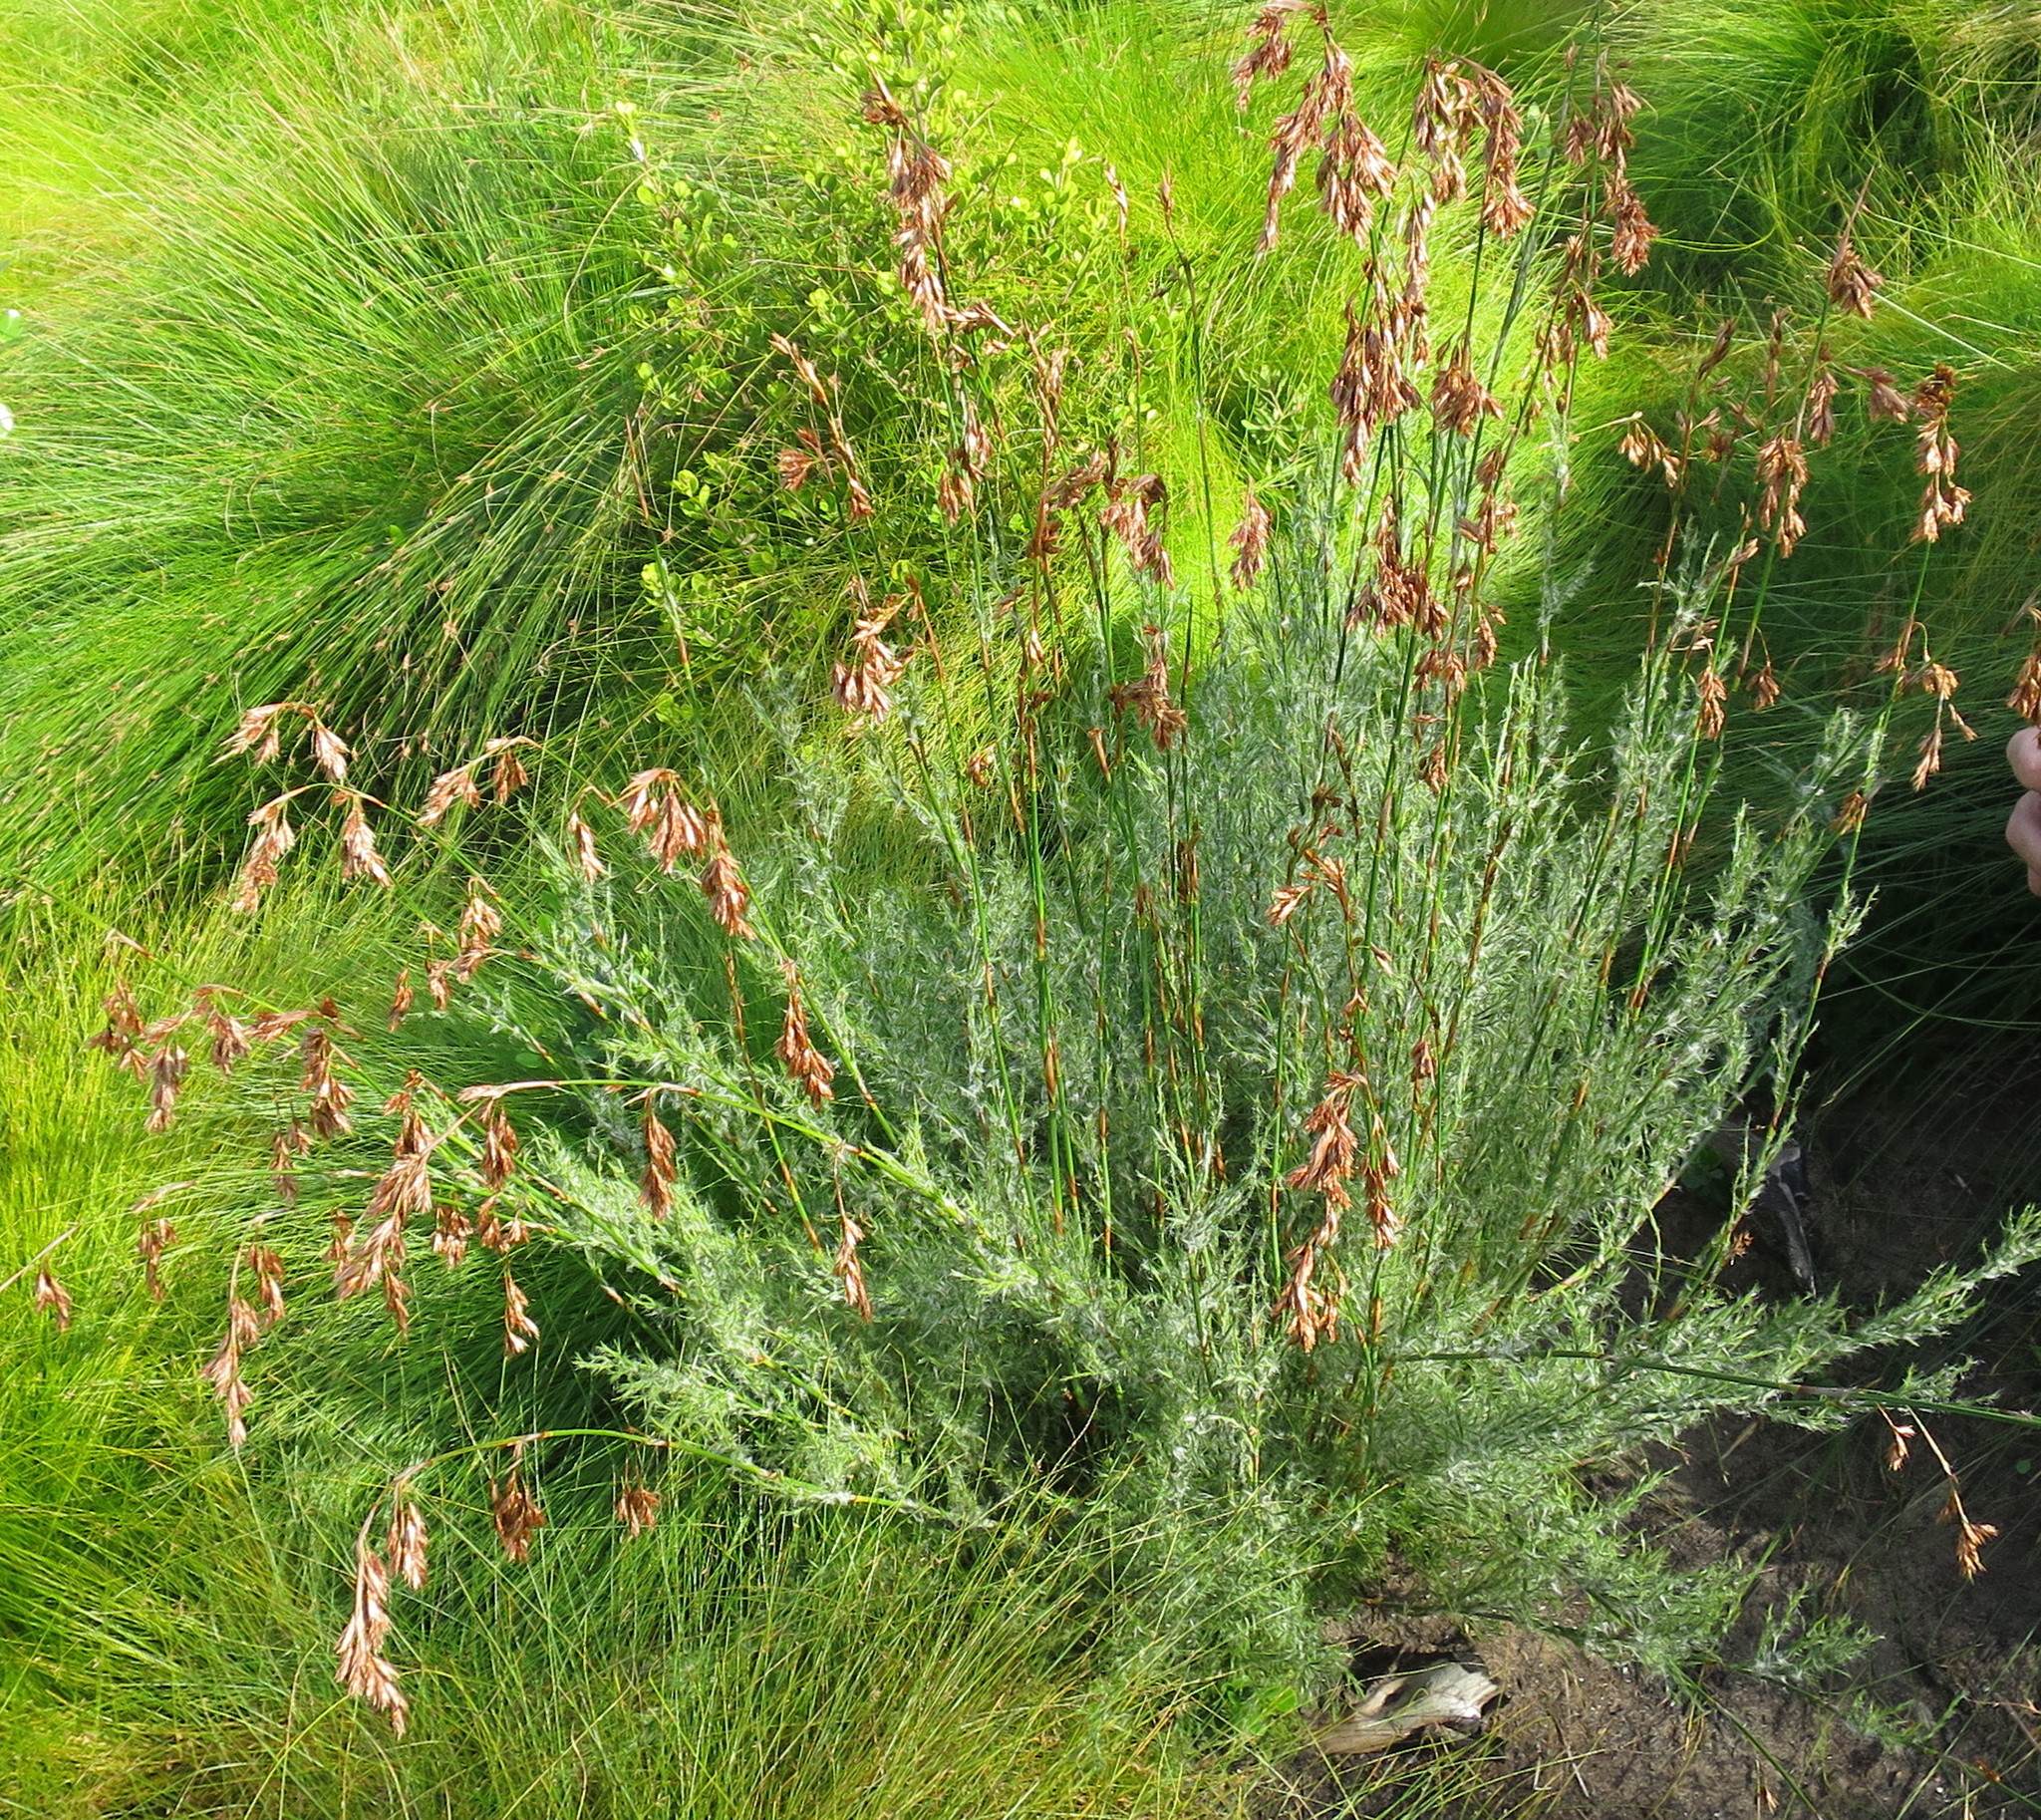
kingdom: Plantae
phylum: Tracheophyta
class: Liliopsida
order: Poales
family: Restionaceae
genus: Thamnochortus
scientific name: Thamnochortus glaber
